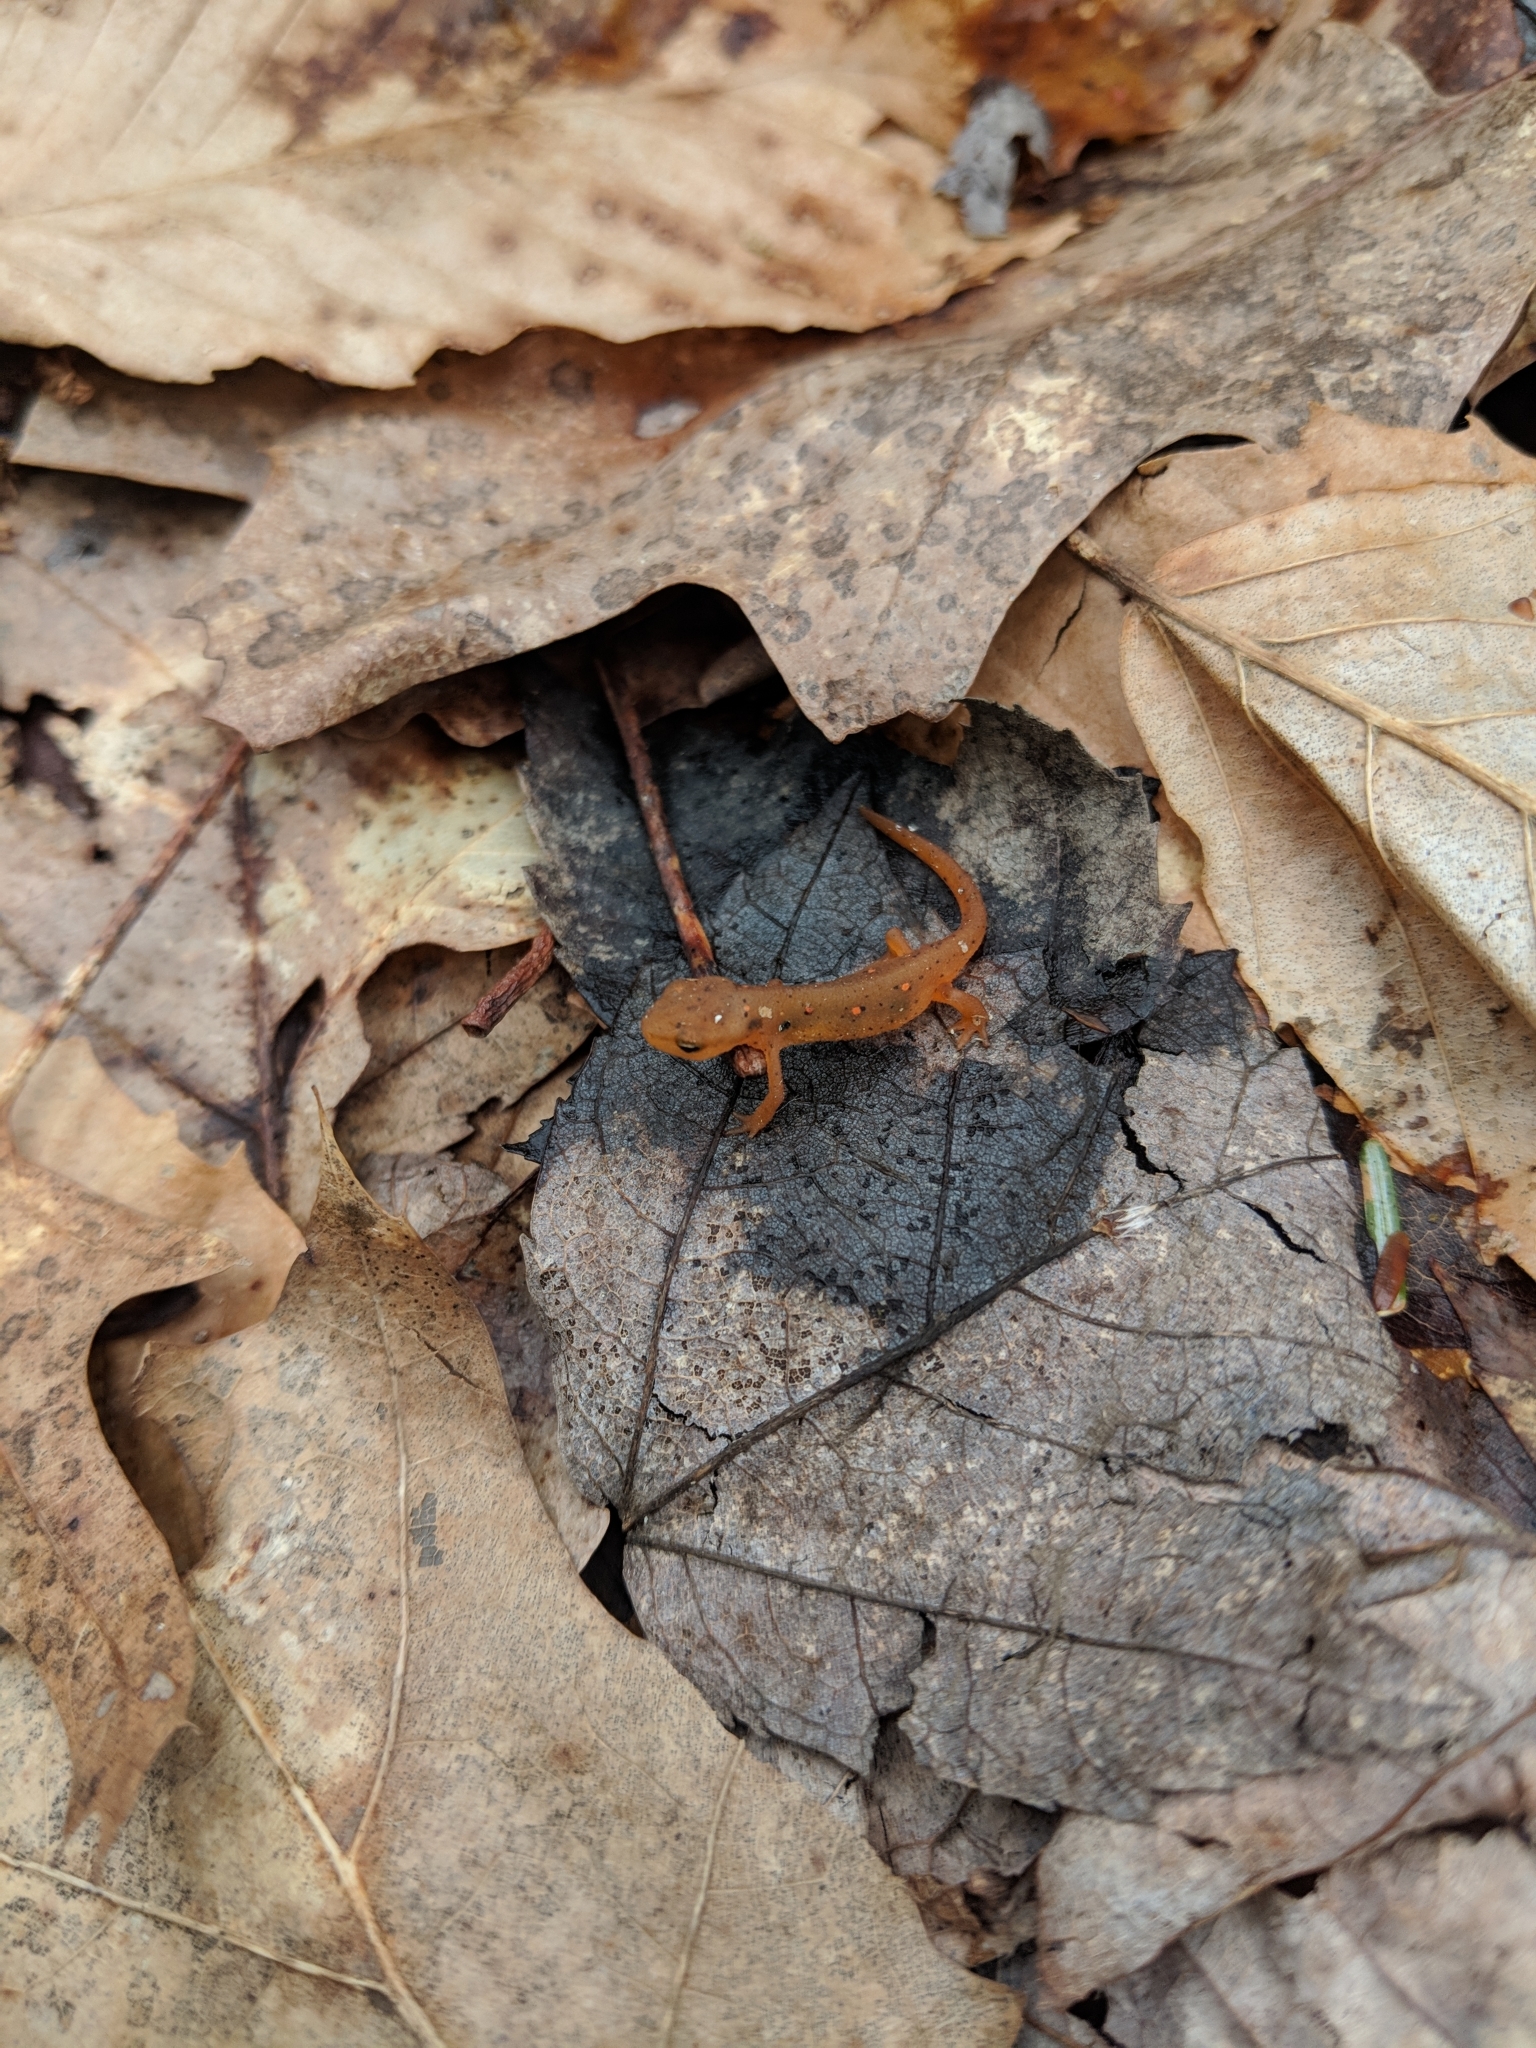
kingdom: Animalia
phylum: Chordata
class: Amphibia
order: Caudata
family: Salamandridae
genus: Notophthalmus
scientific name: Notophthalmus viridescens
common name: Eastern newt
